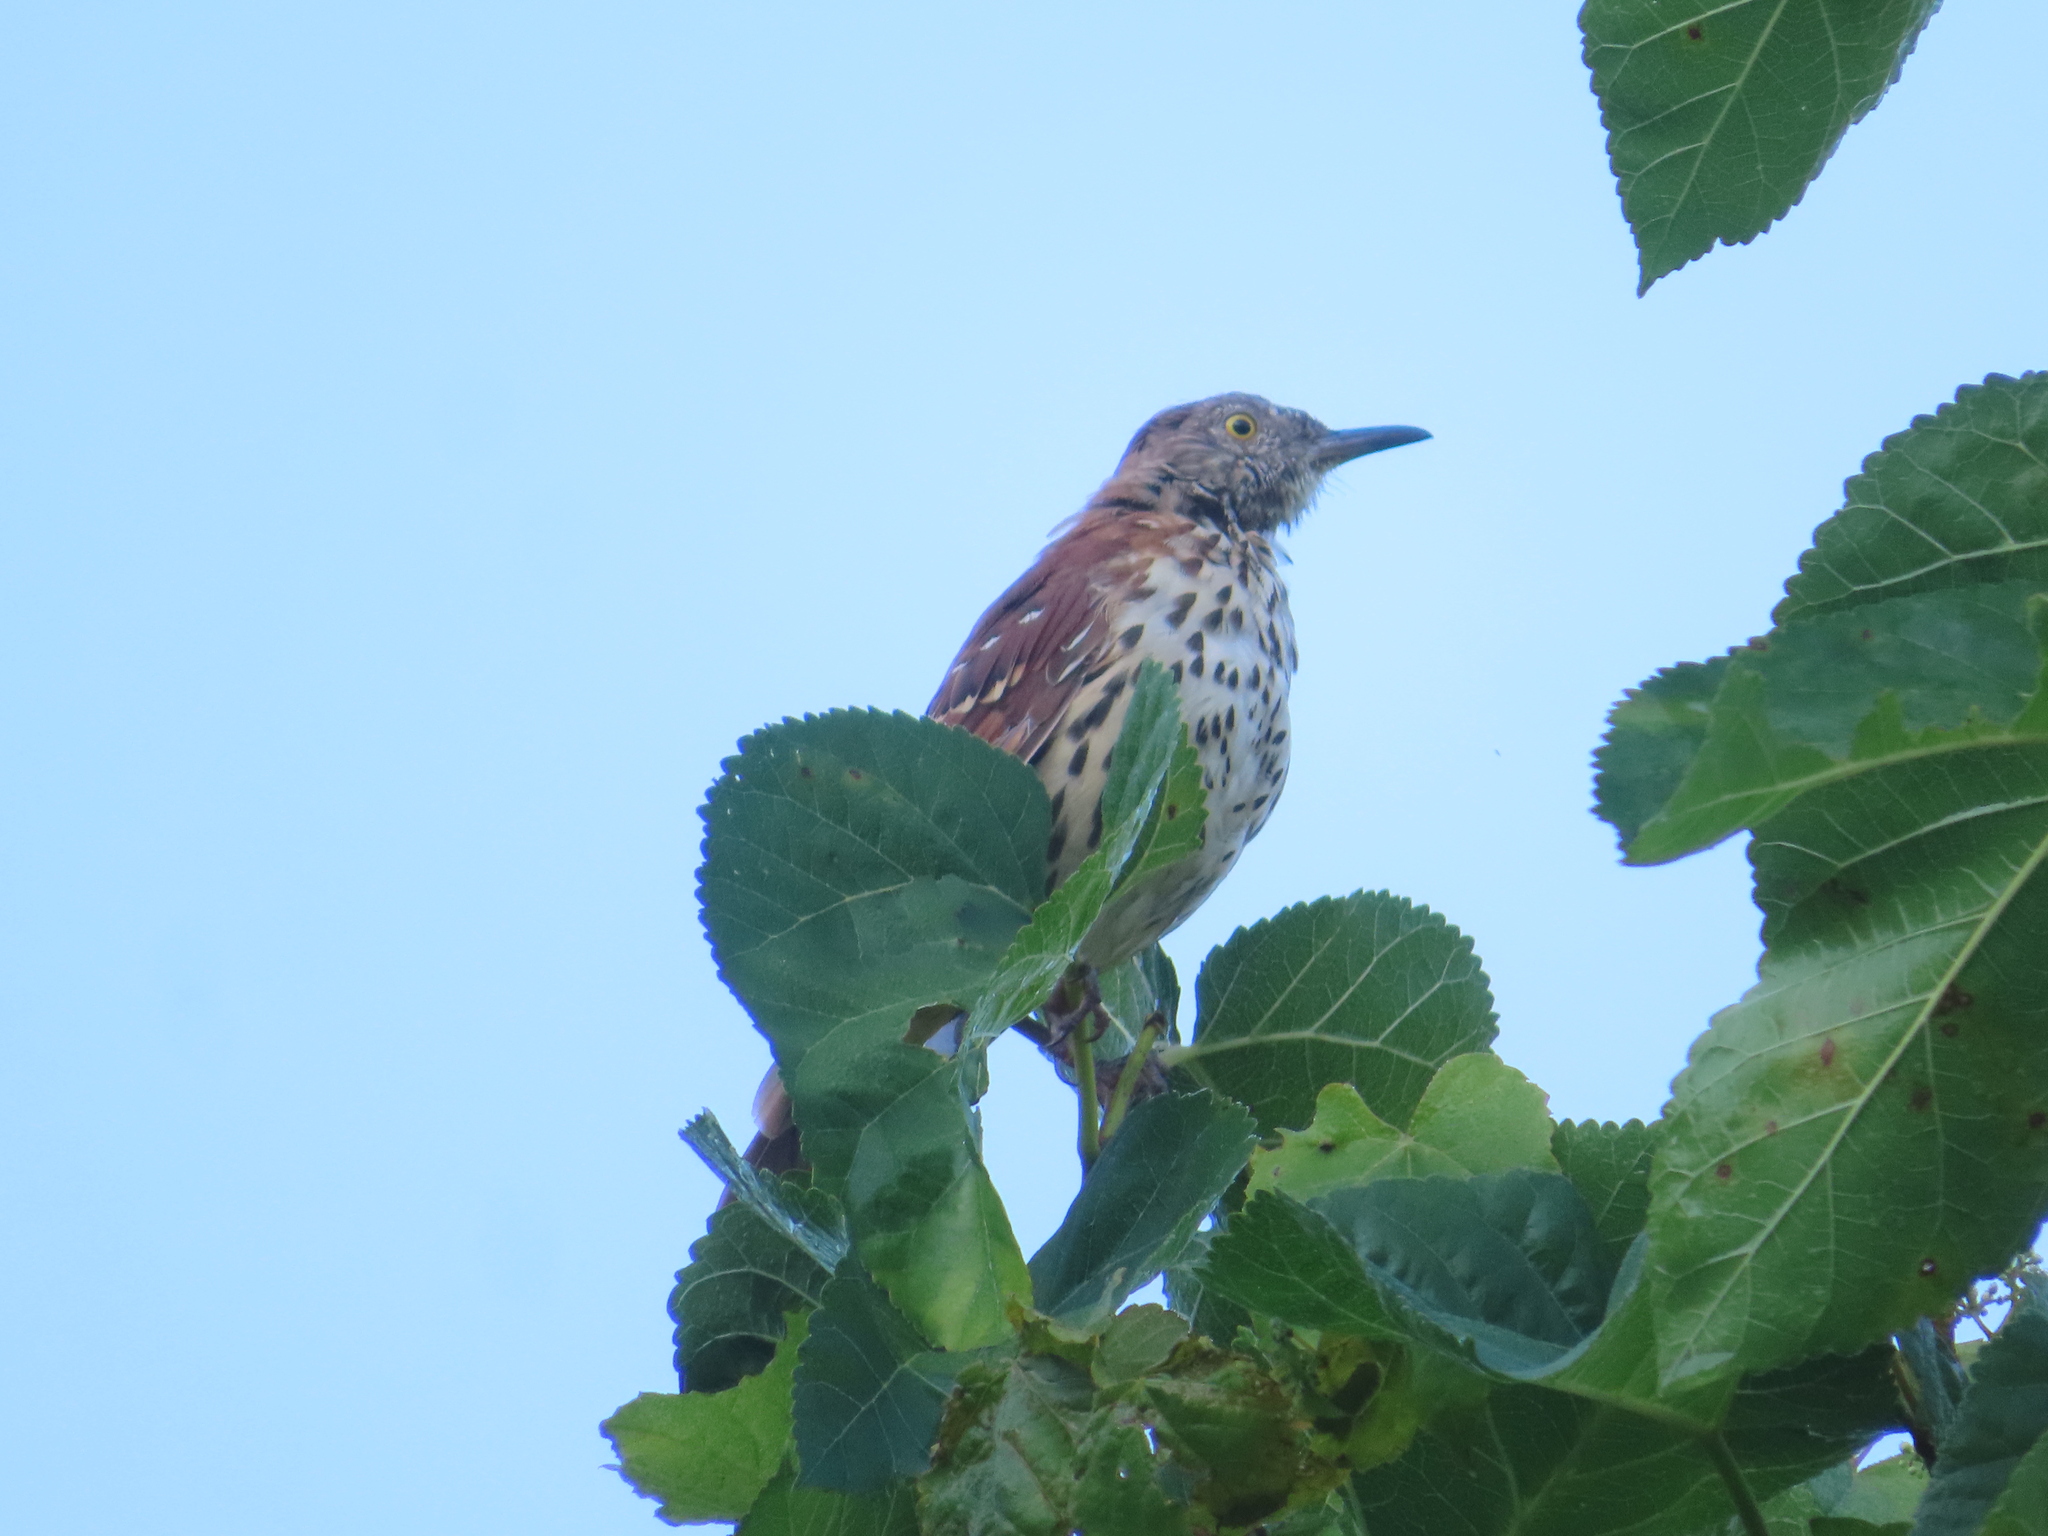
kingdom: Animalia
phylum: Chordata
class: Aves
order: Passeriformes
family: Mimidae
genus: Toxostoma
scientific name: Toxostoma rufum
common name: Brown thrasher
